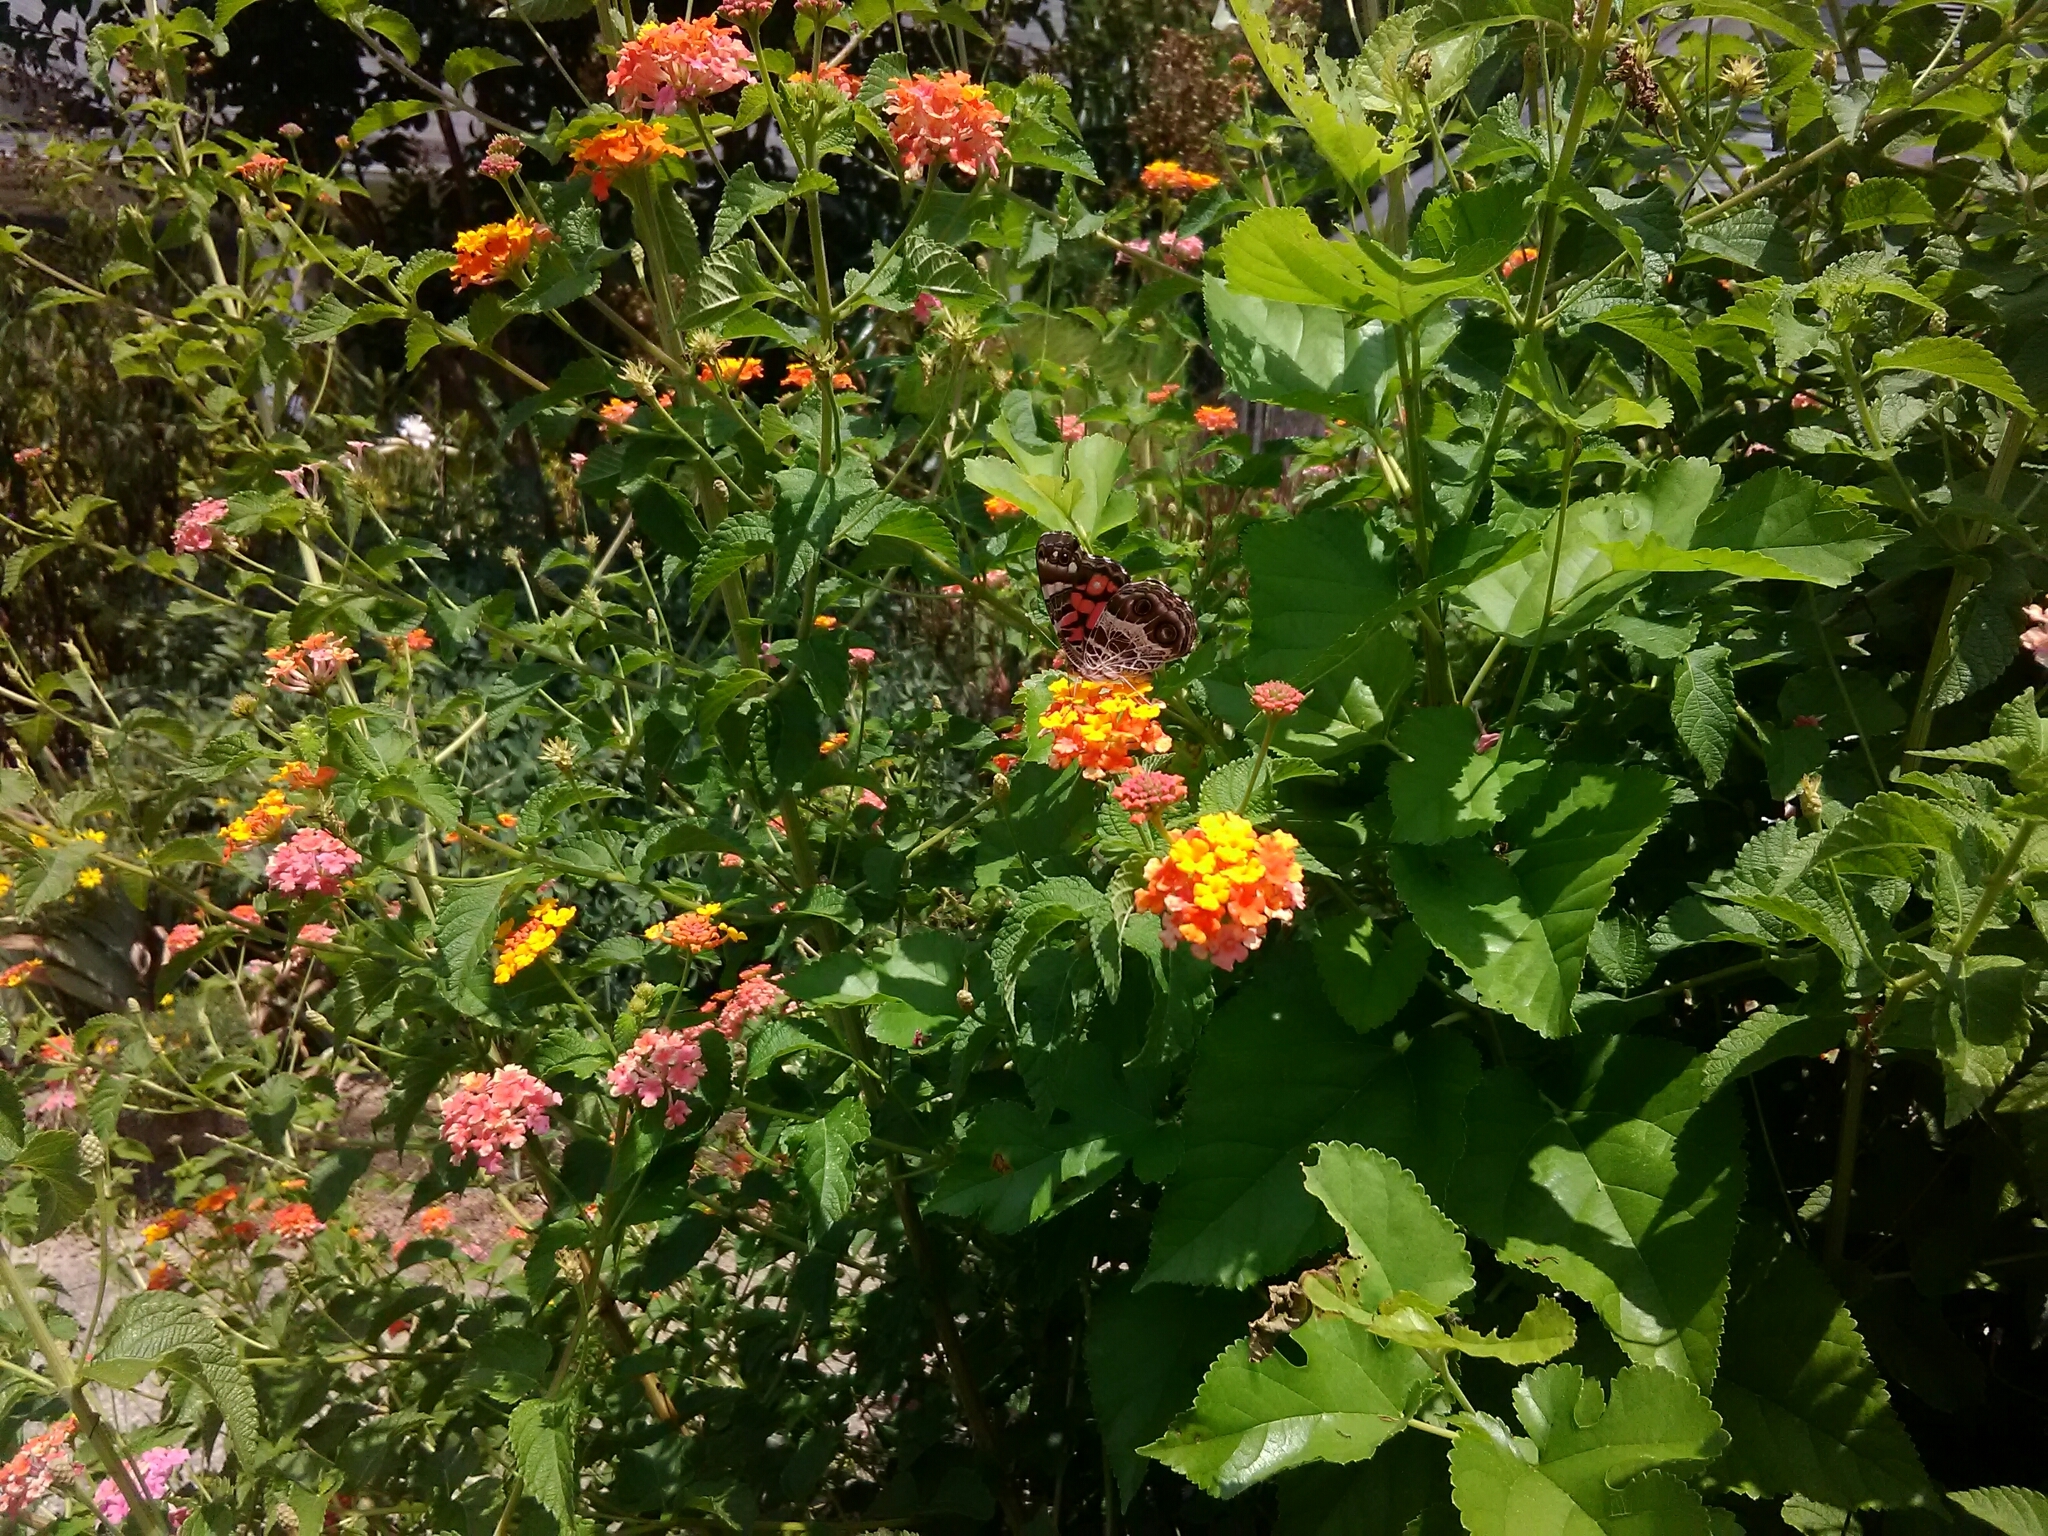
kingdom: Animalia
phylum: Arthropoda
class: Insecta
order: Lepidoptera
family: Nymphalidae
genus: Vanessa
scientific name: Vanessa virginiensis
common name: American lady
